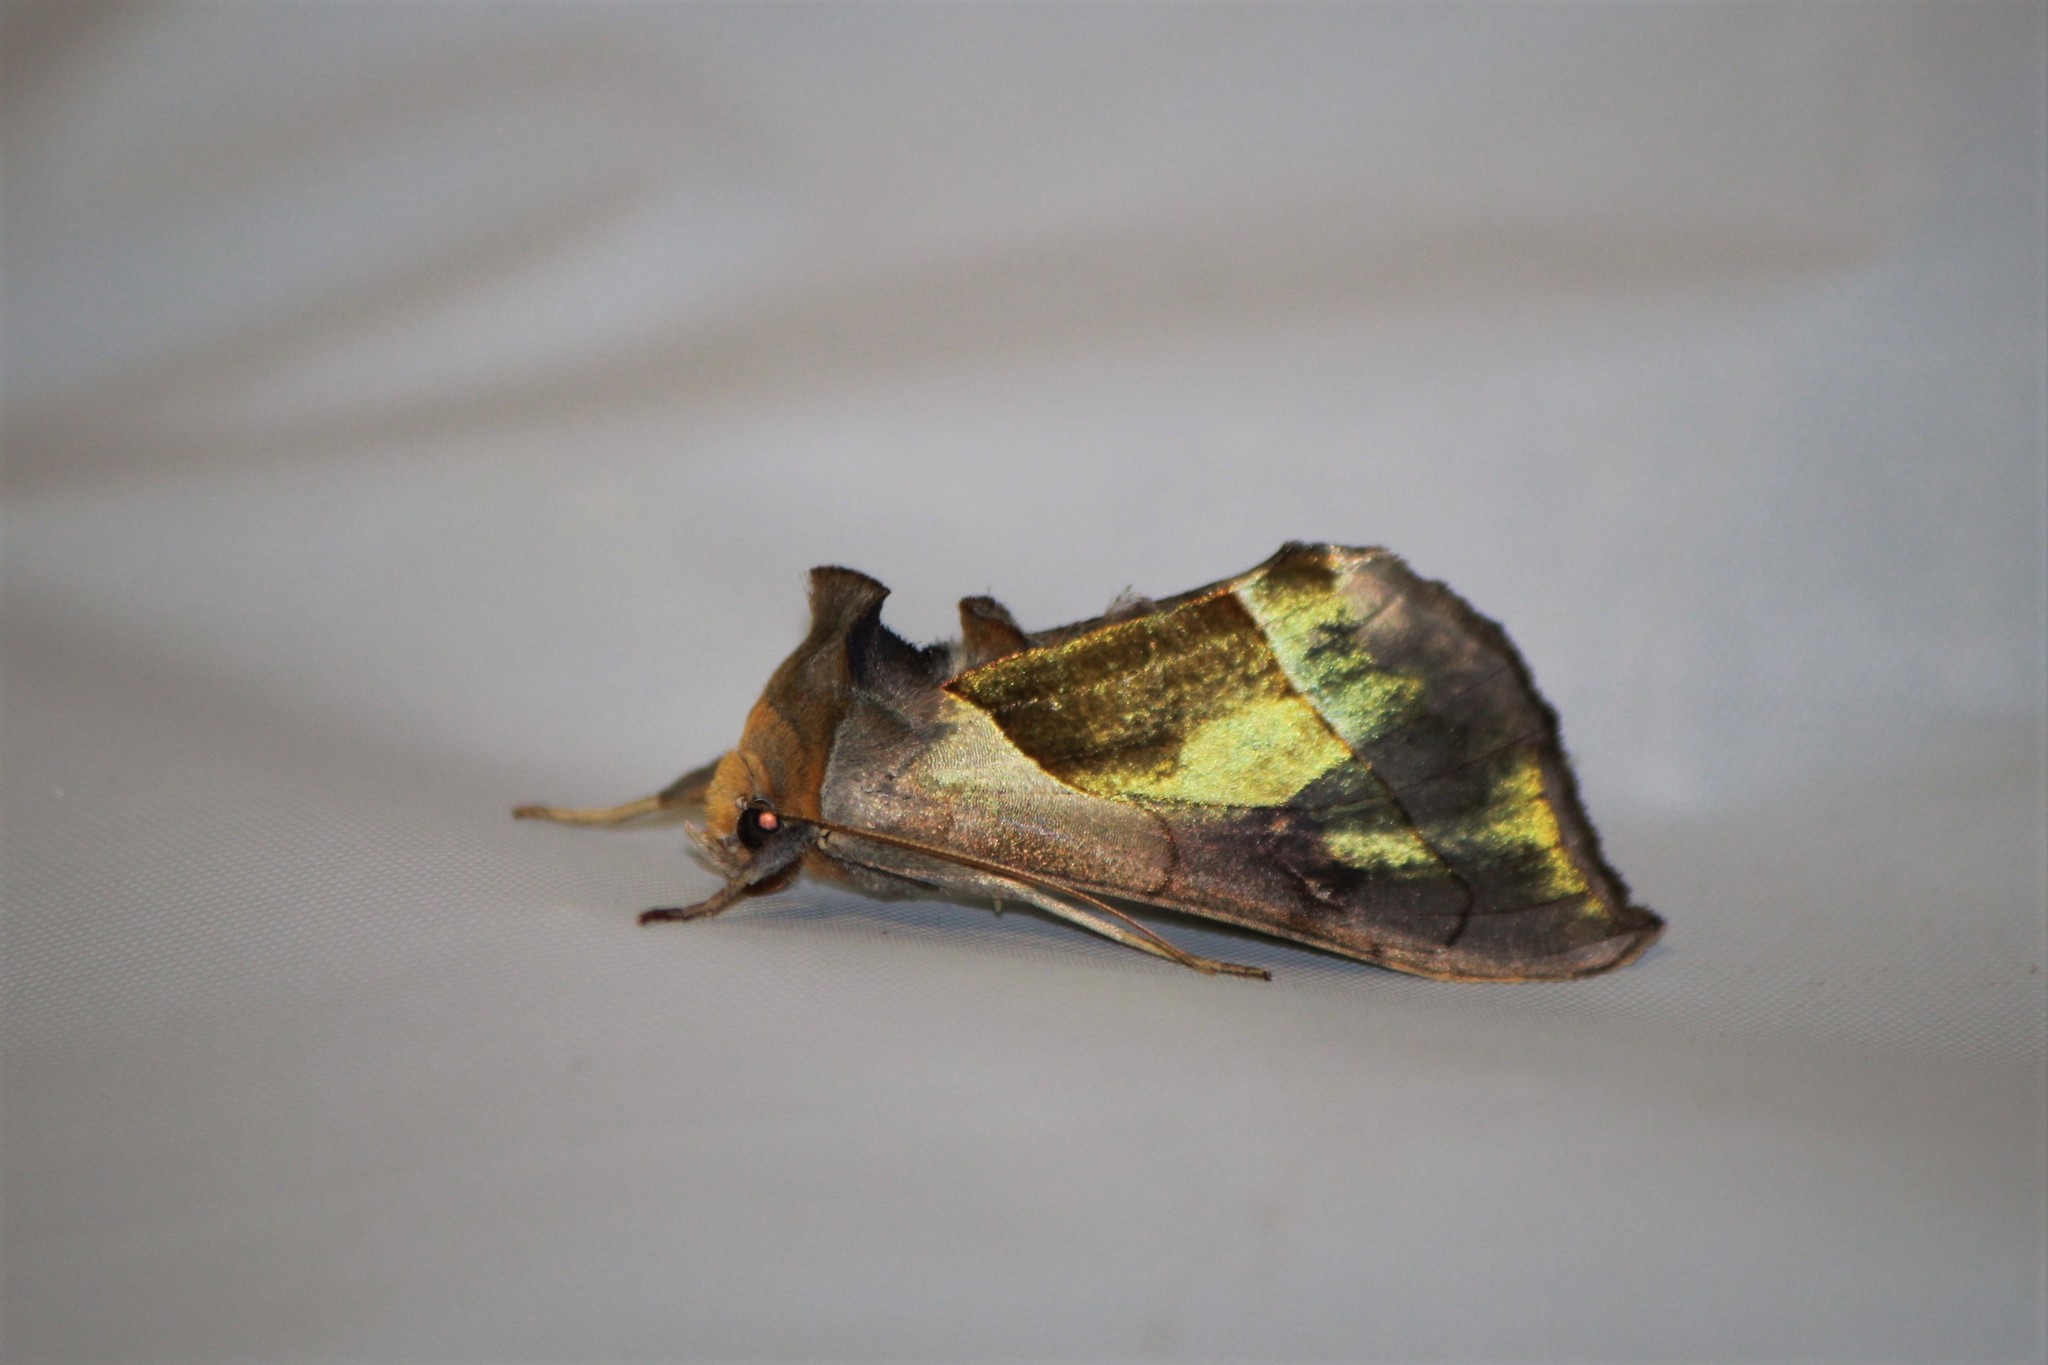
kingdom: Animalia
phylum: Arthropoda
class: Insecta
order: Lepidoptera
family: Noctuidae
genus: Diachrysia
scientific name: Diachrysia balluca
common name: Green-patched looper moth
